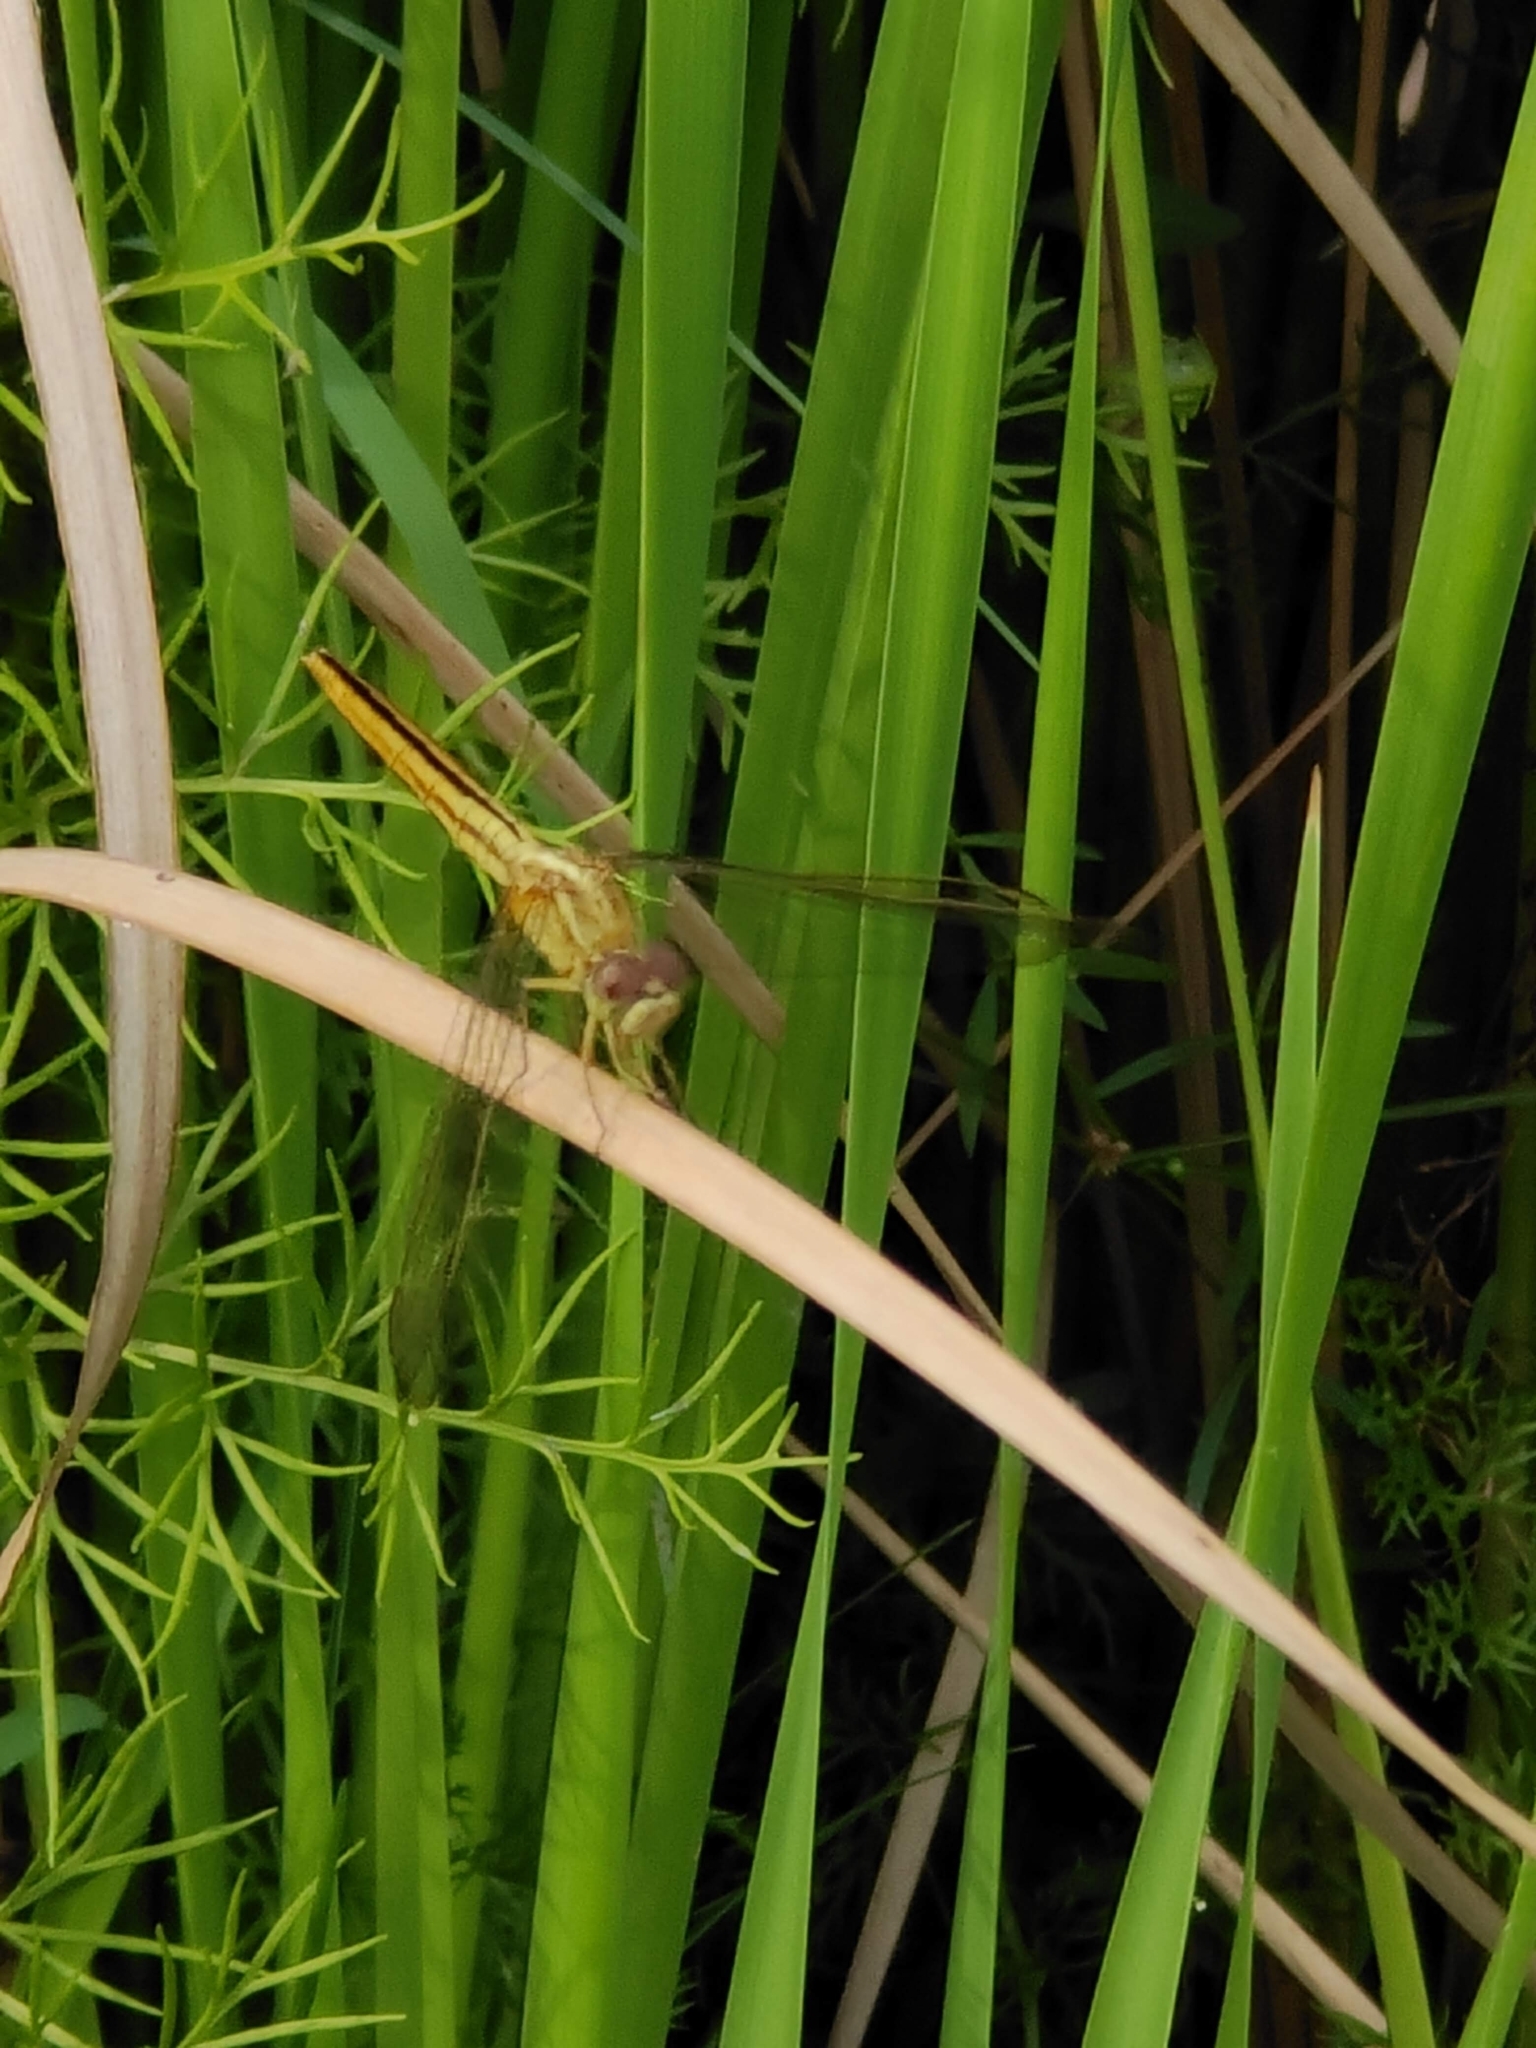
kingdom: Animalia
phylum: Arthropoda
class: Insecta
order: Odonata
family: Libellulidae
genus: Crocothemis
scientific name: Crocothemis servilia
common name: Scarlet skimmer
